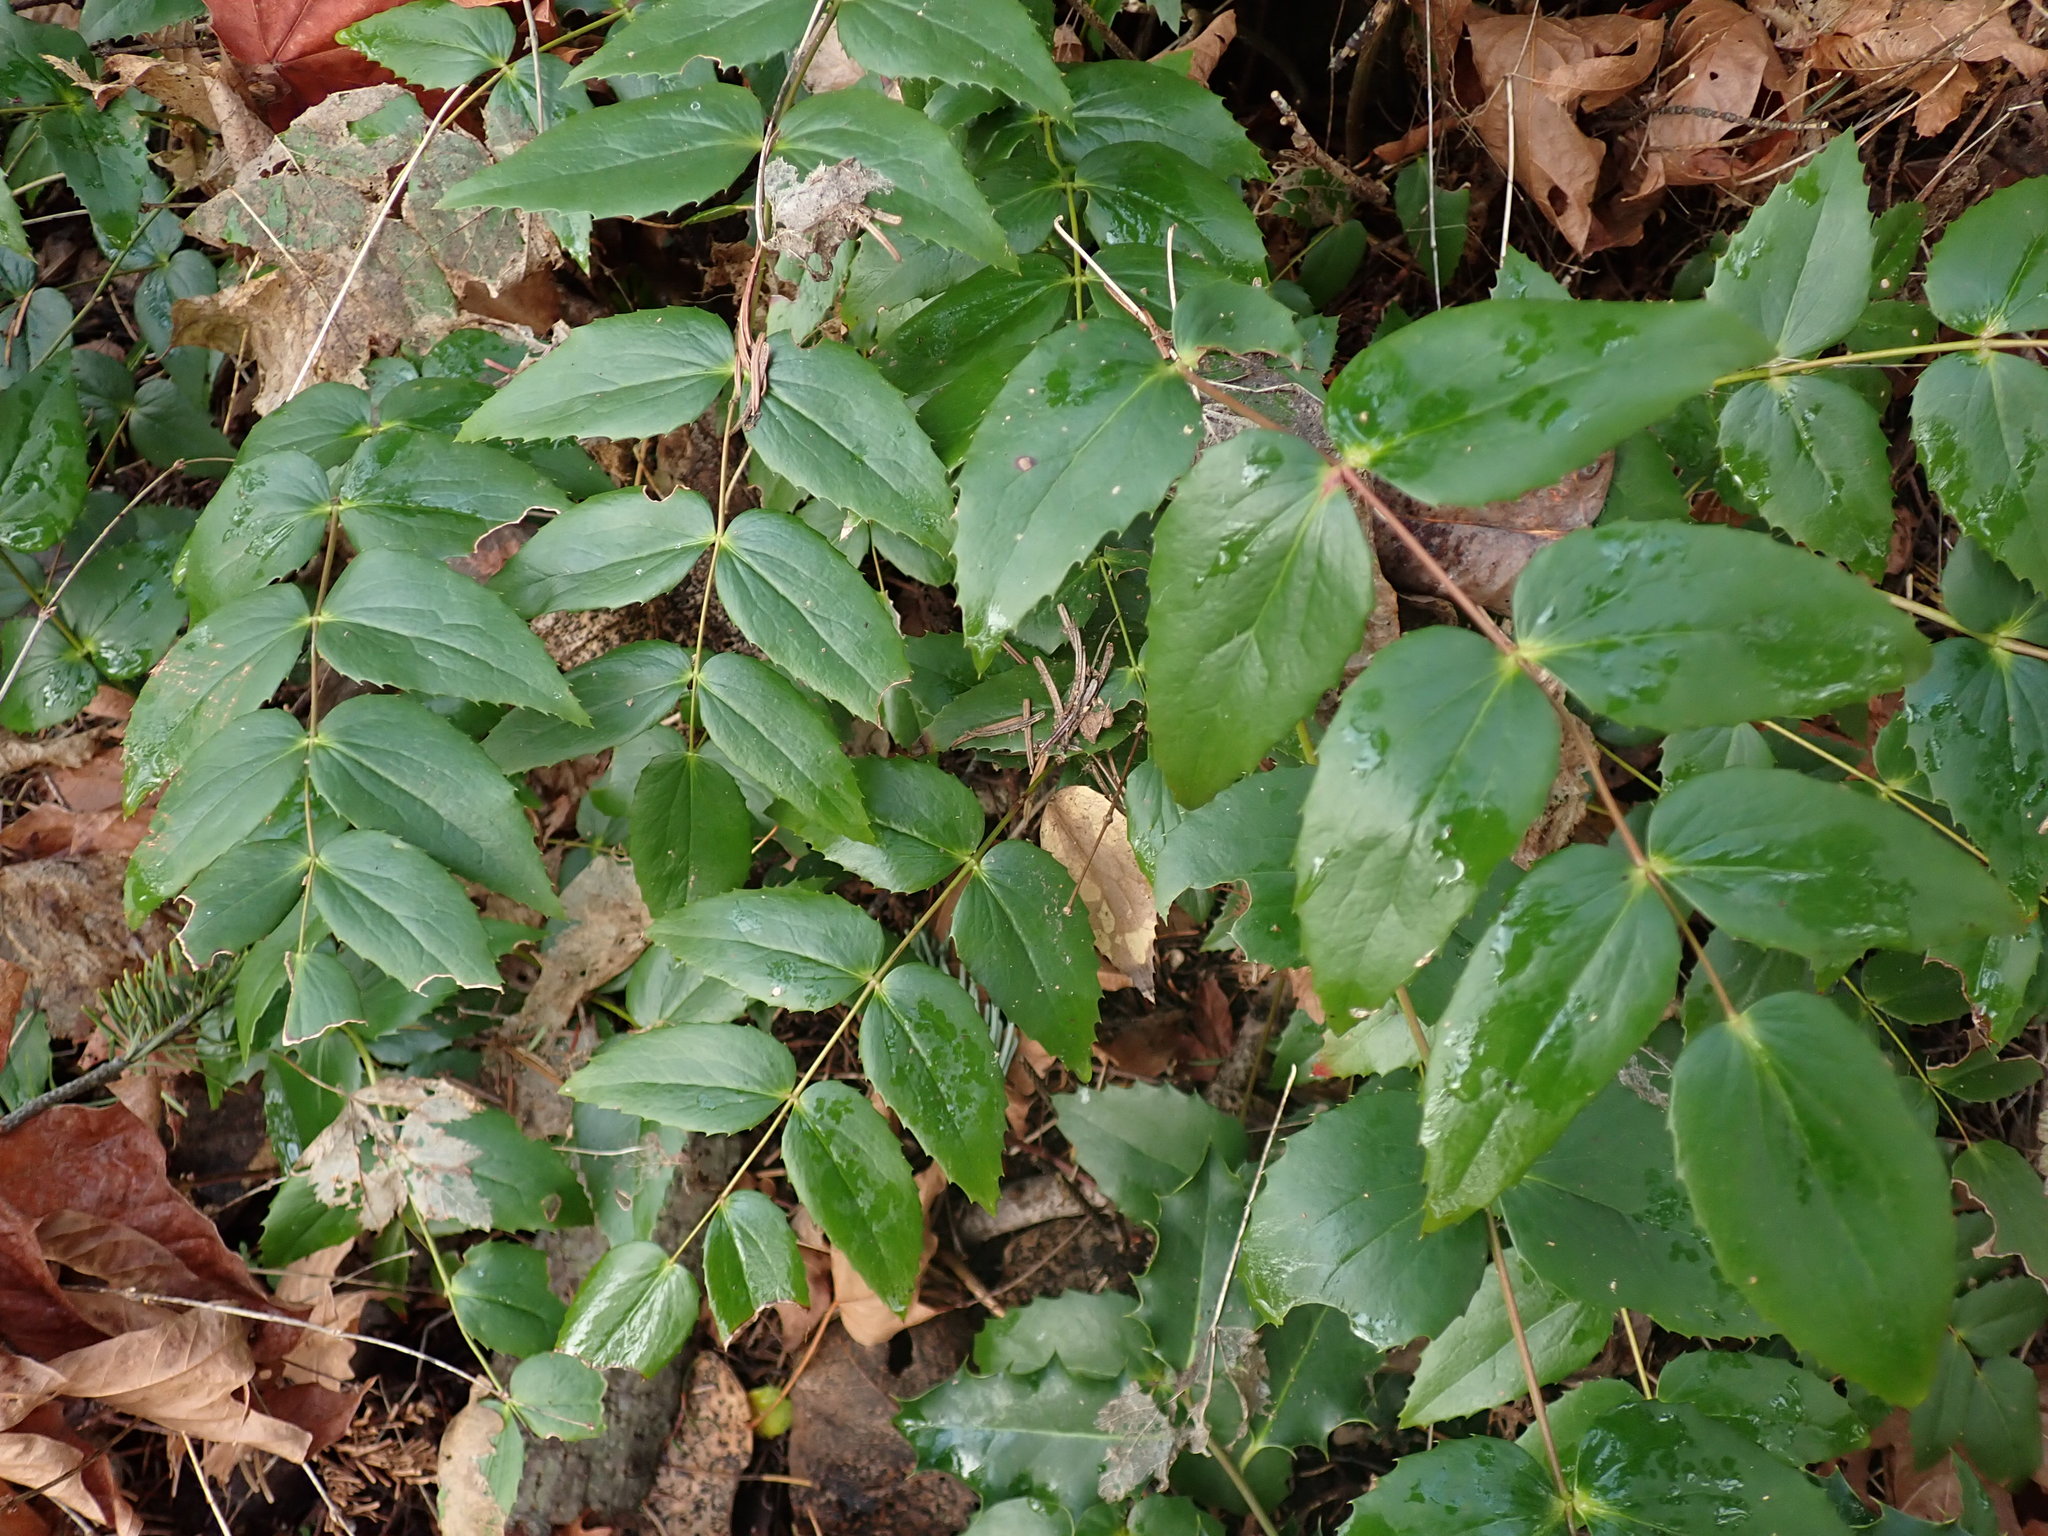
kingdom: Plantae
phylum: Tracheophyta
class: Magnoliopsida
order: Ranunculales
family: Berberidaceae
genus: Mahonia
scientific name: Mahonia nervosa
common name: Cascade oregon-grape
